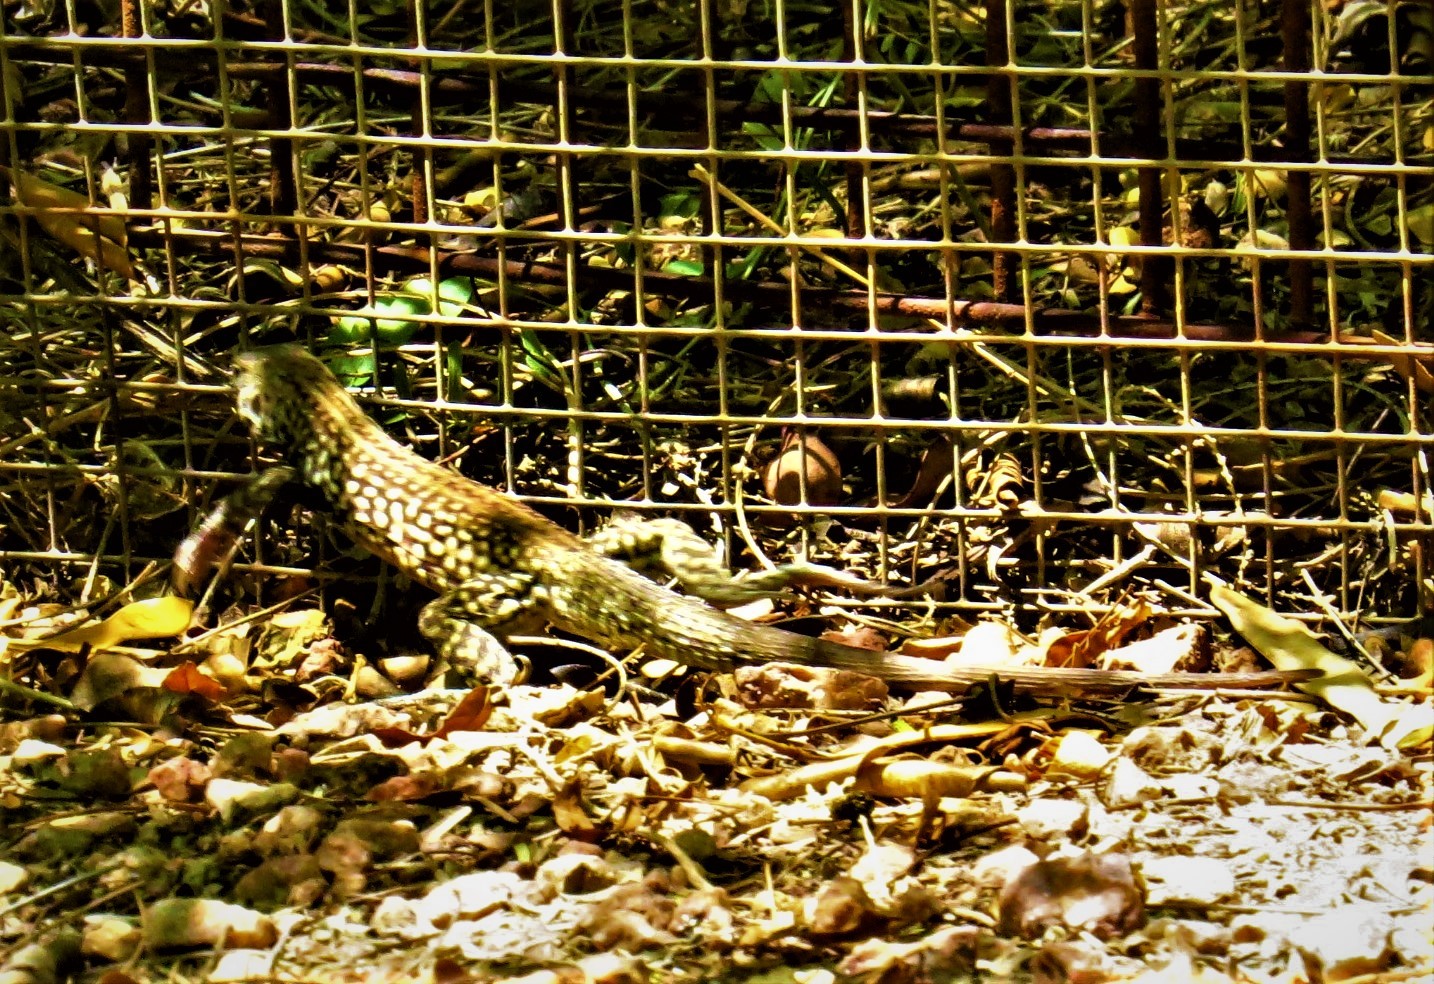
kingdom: Animalia
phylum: Chordata
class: Squamata
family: Teiidae
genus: Aspidoscelis
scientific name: Aspidoscelis tigris
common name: Tiger whiptail
